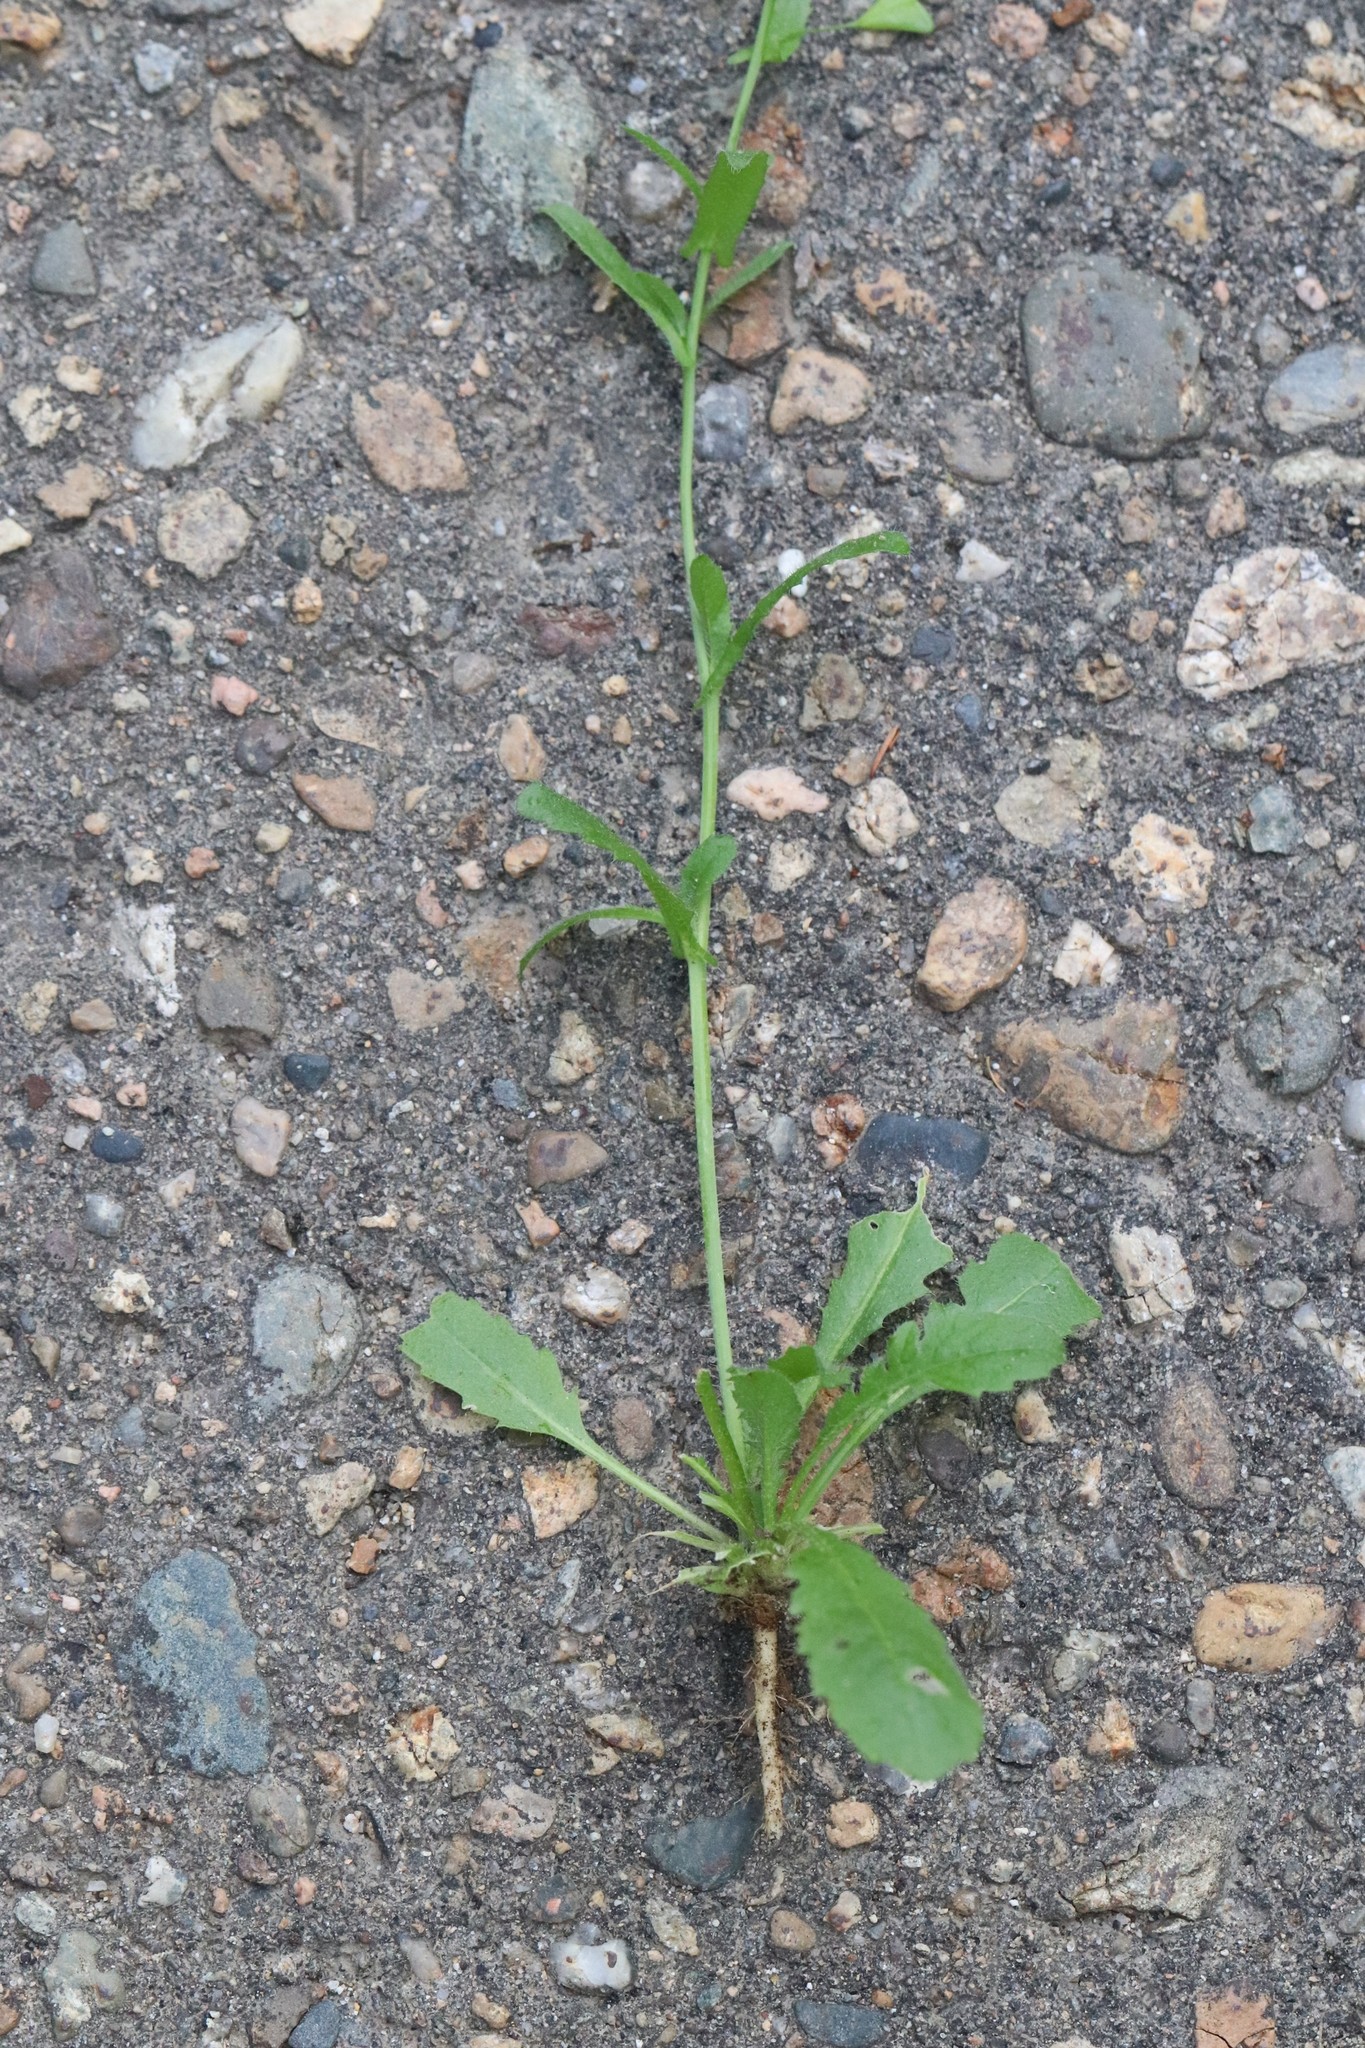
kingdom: Plantae
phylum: Tracheophyta
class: Magnoliopsida
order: Brassicales
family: Brassicaceae
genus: Capsella
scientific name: Capsella bursa-pastoris
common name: Shepherd's purse
